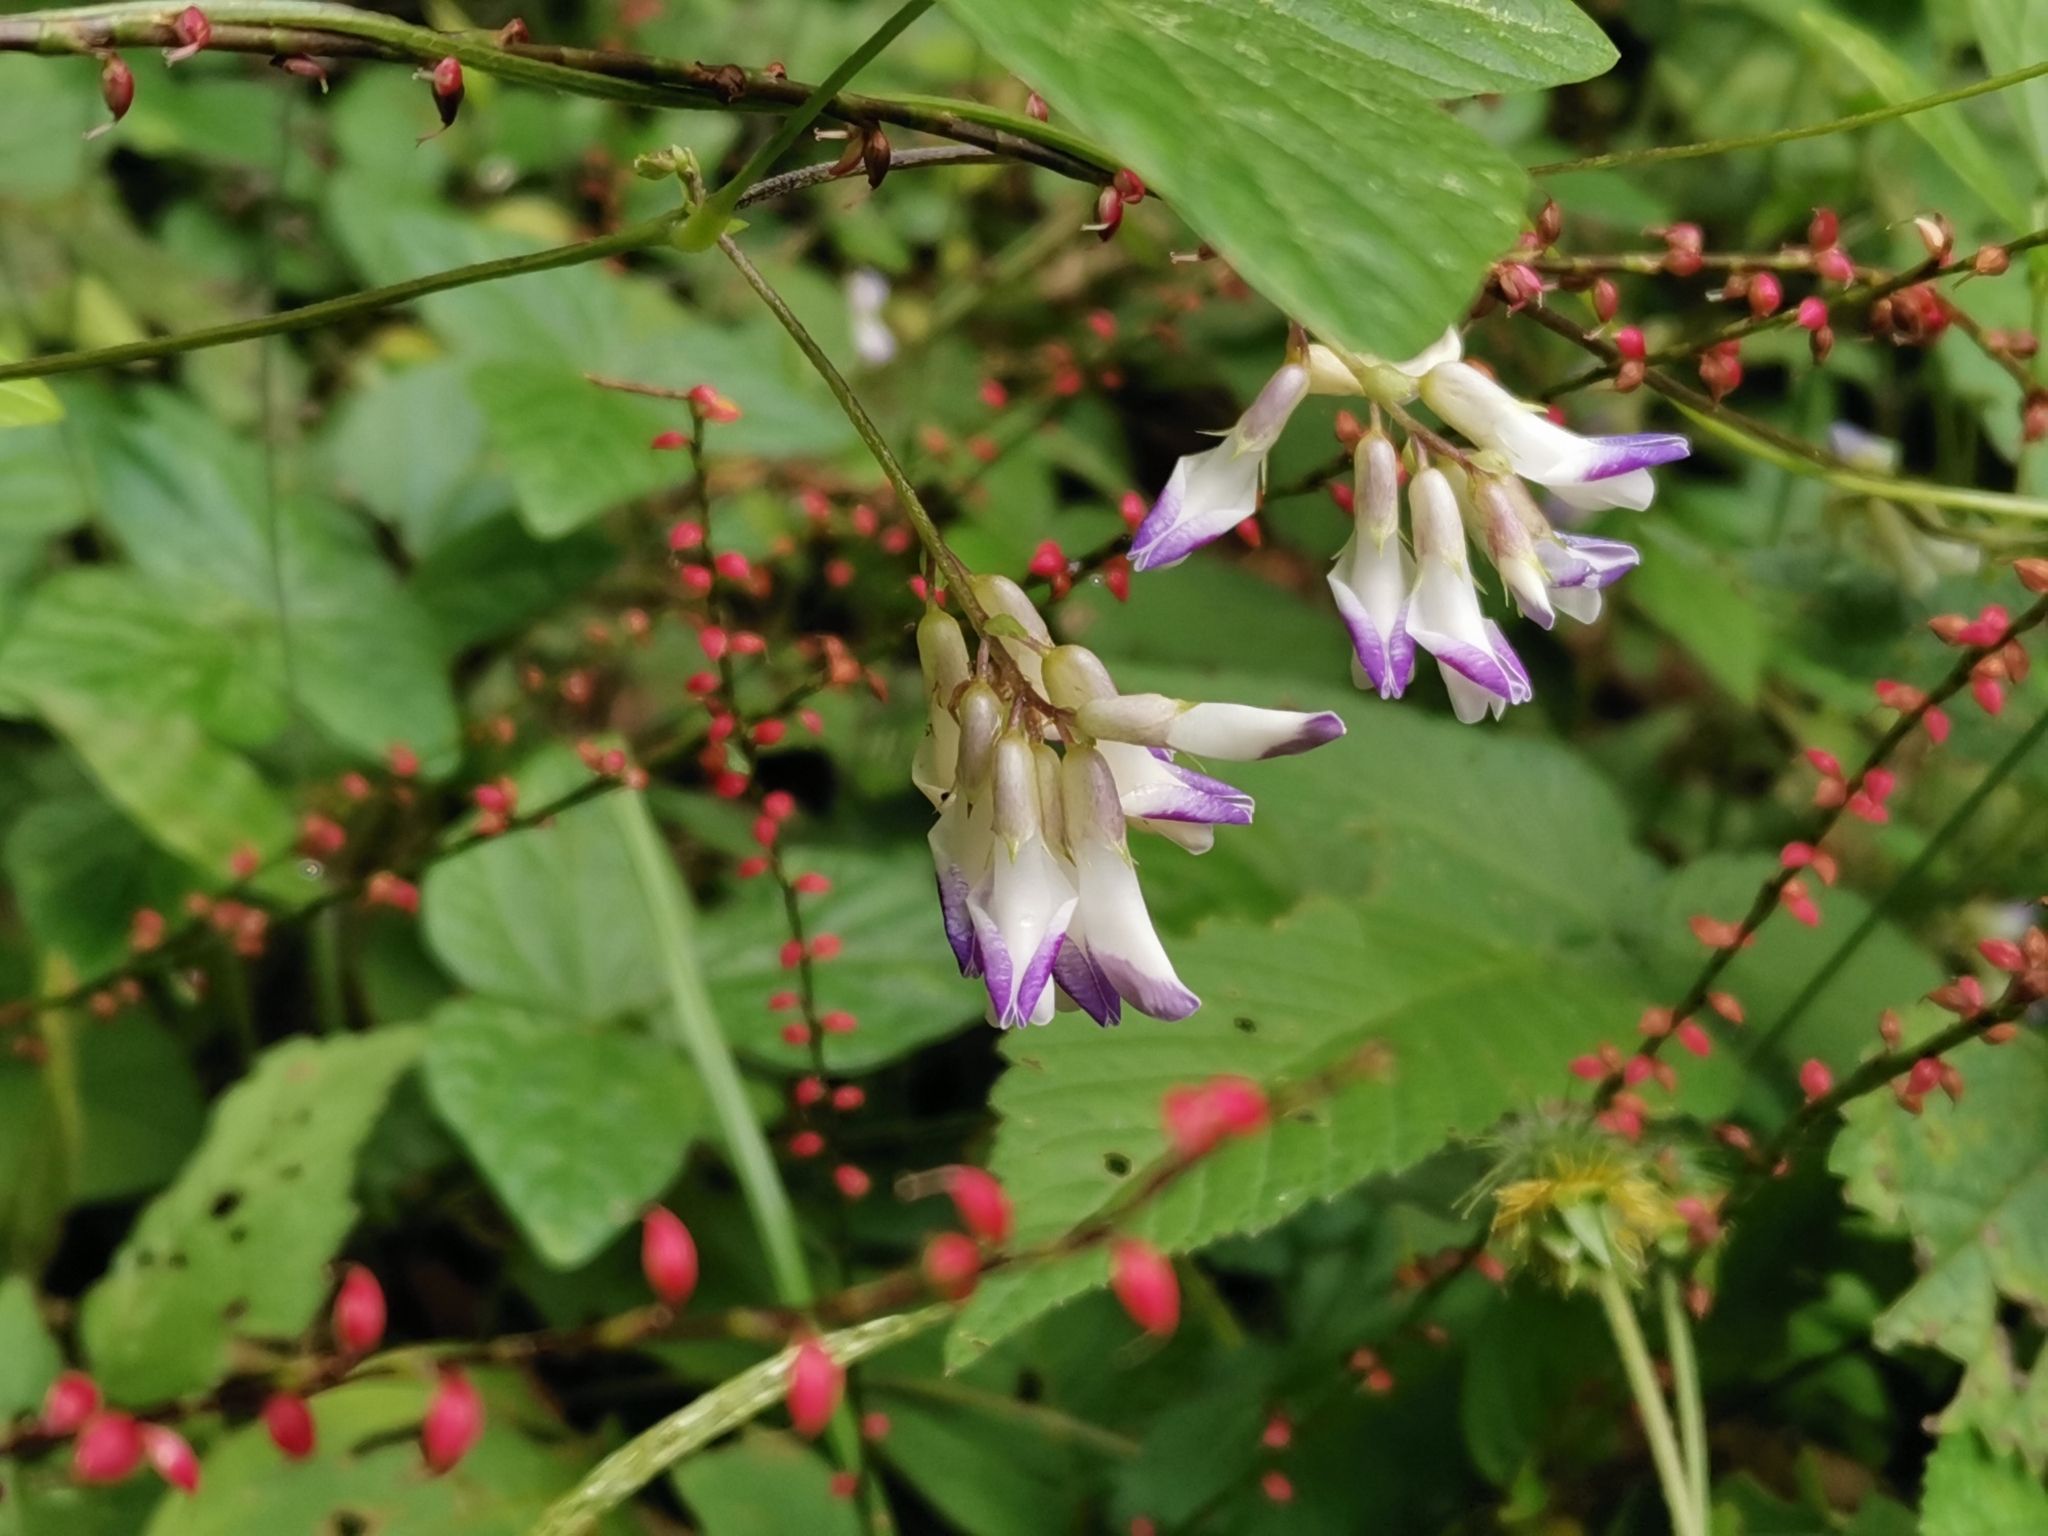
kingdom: Plantae
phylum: Tracheophyta
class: Magnoliopsida
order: Fabales
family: Fabaceae
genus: Amphicarpaea
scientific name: Amphicarpaea edgeworthii
